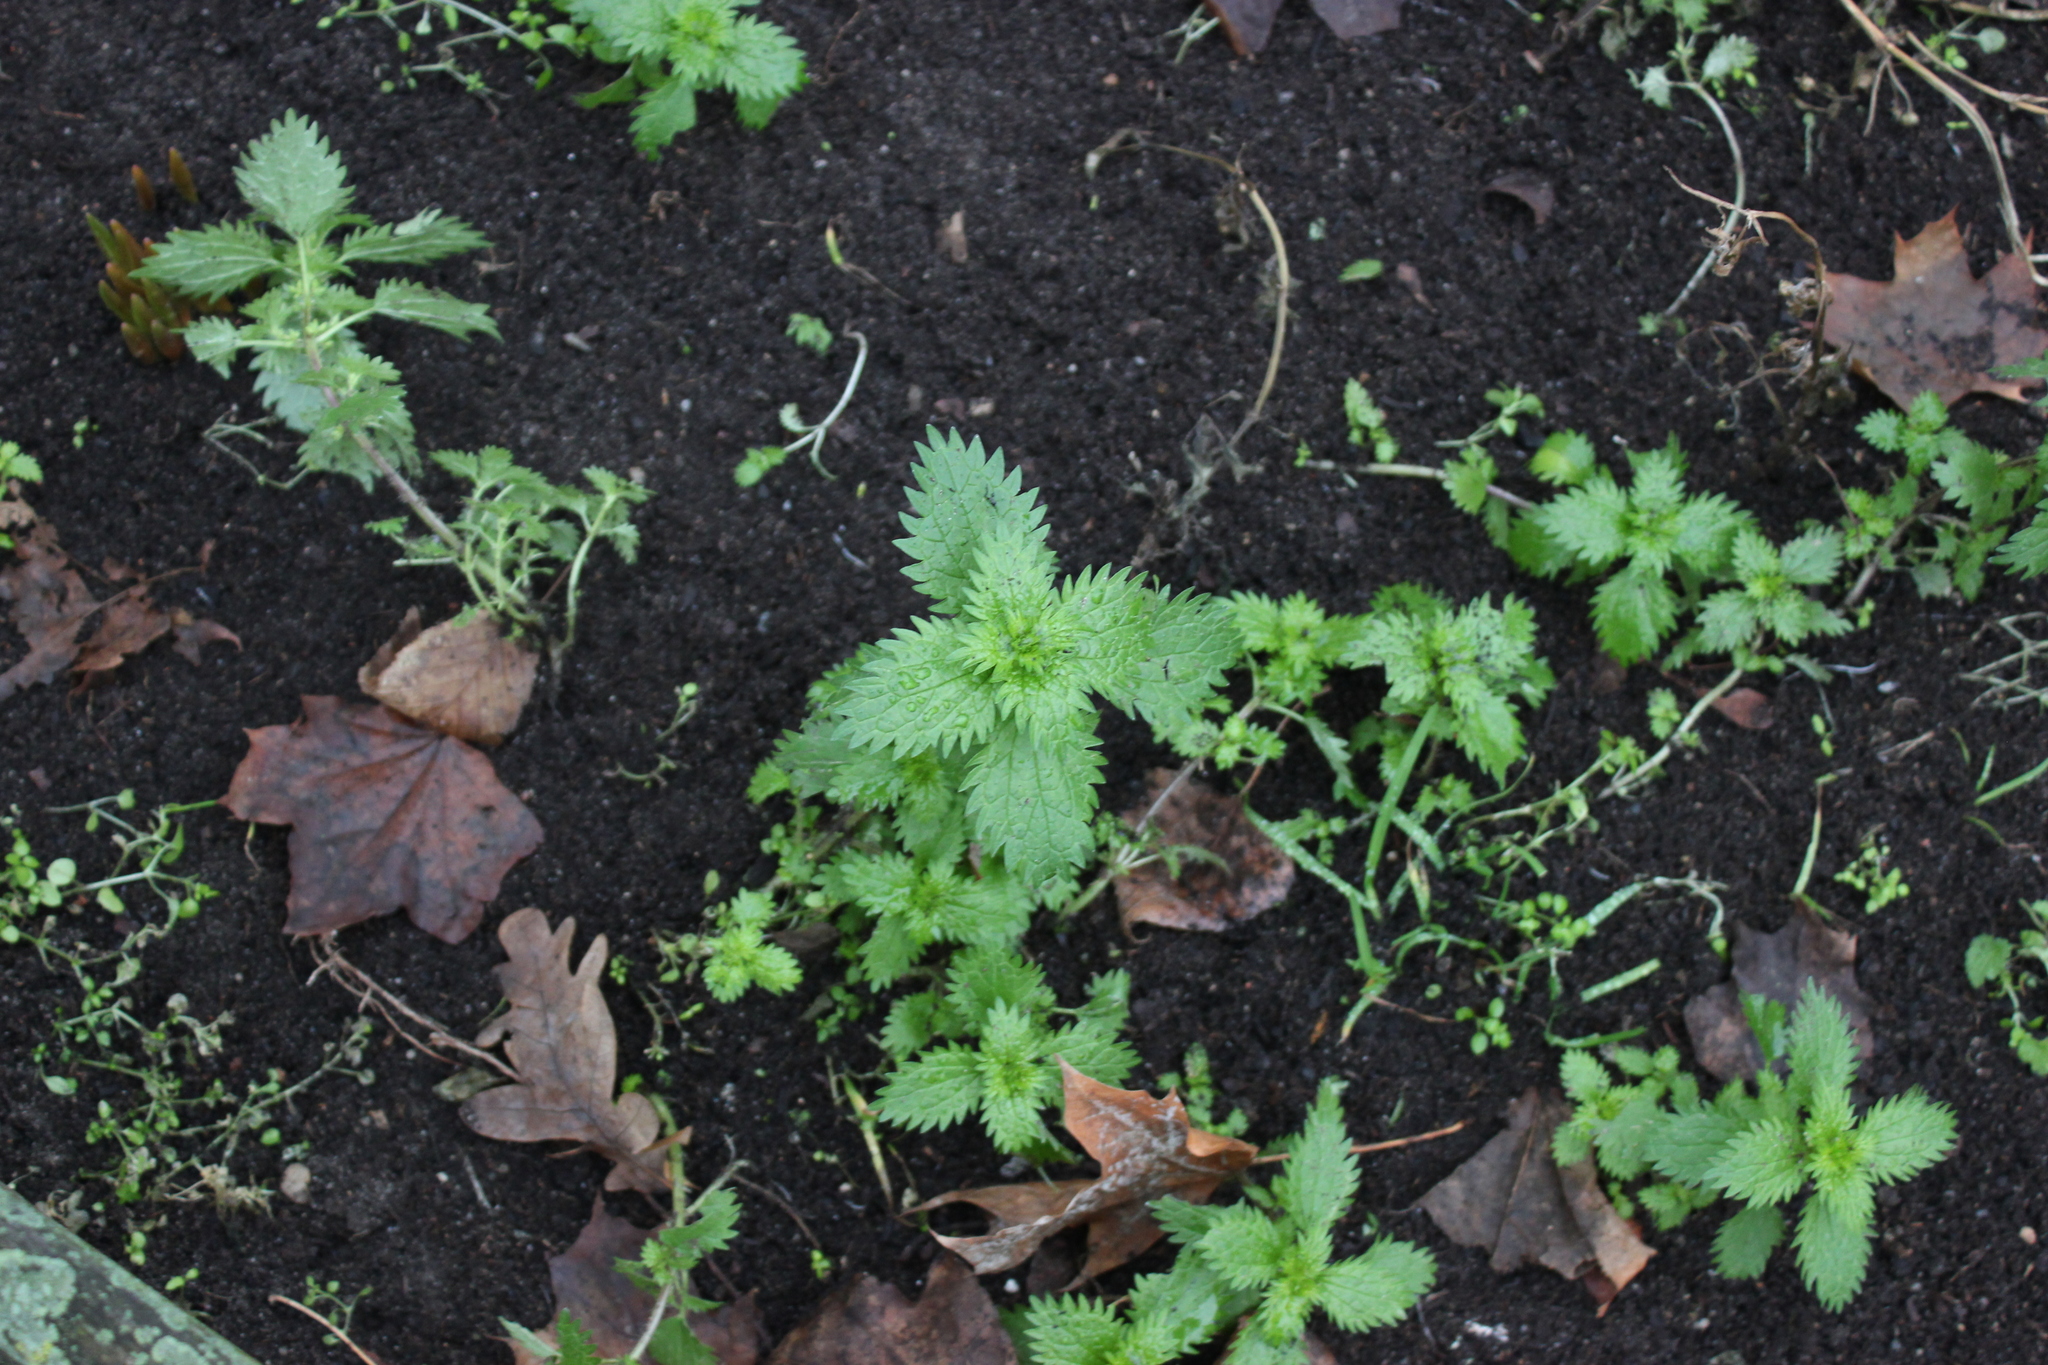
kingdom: Plantae
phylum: Tracheophyta
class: Magnoliopsida
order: Rosales
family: Urticaceae
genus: Urtica
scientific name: Urtica urens
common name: Dwarf nettle
